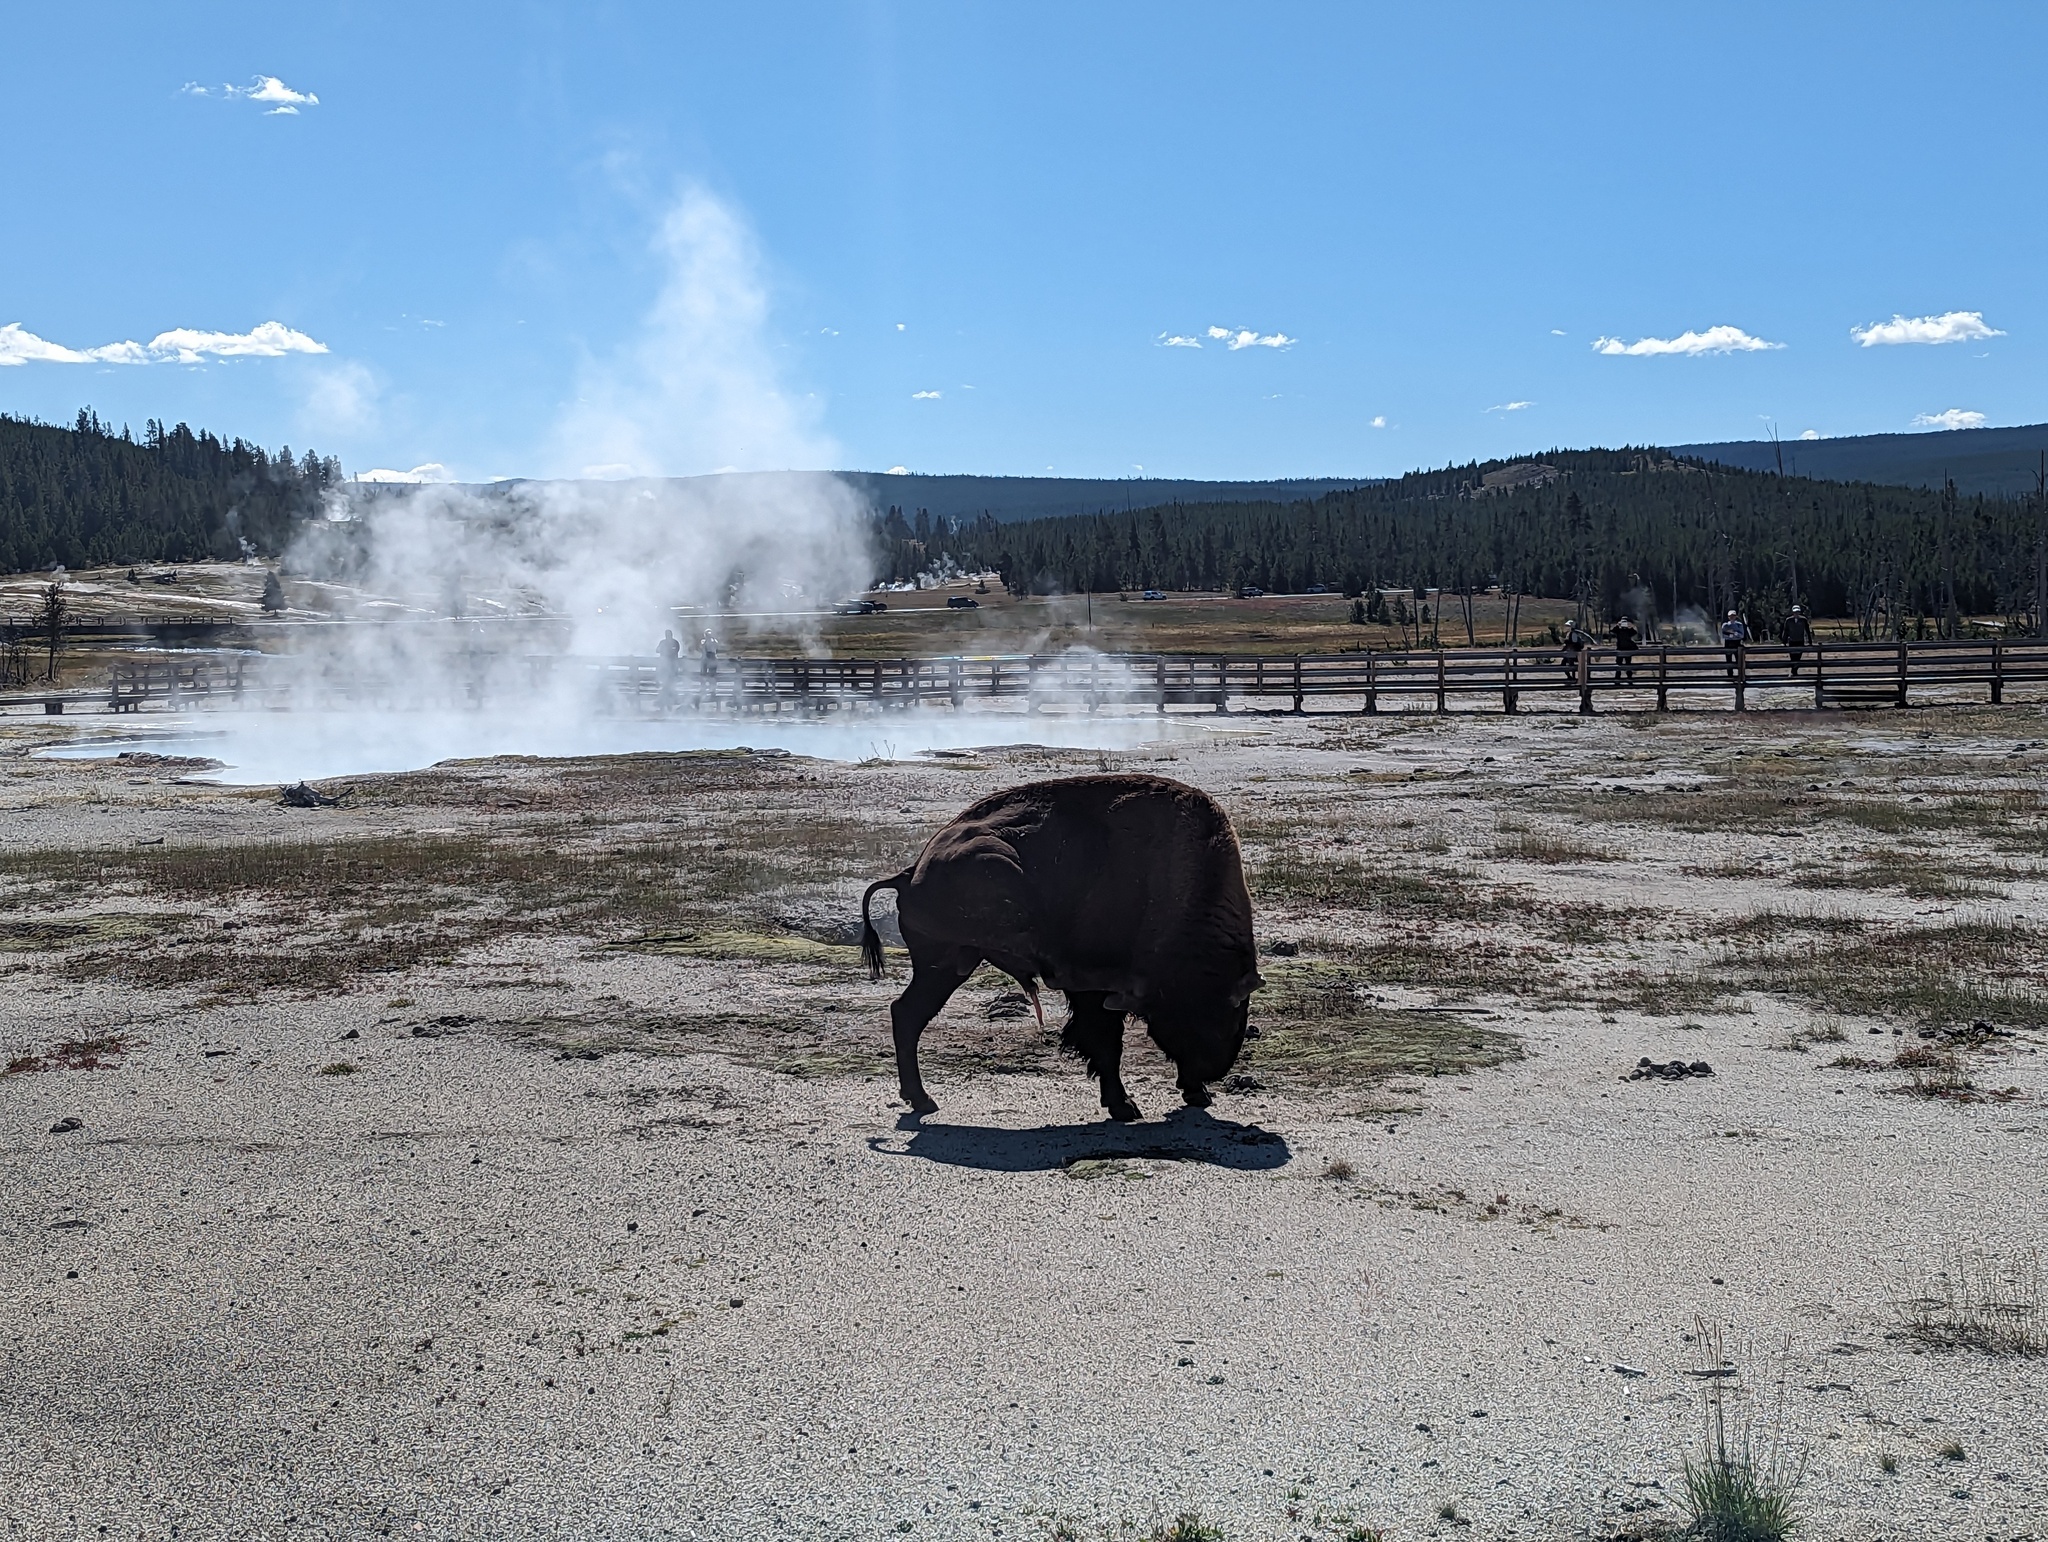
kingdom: Animalia
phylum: Chordata
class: Mammalia
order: Artiodactyla
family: Bovidae
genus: Bison
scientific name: Bison bison
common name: American bison
